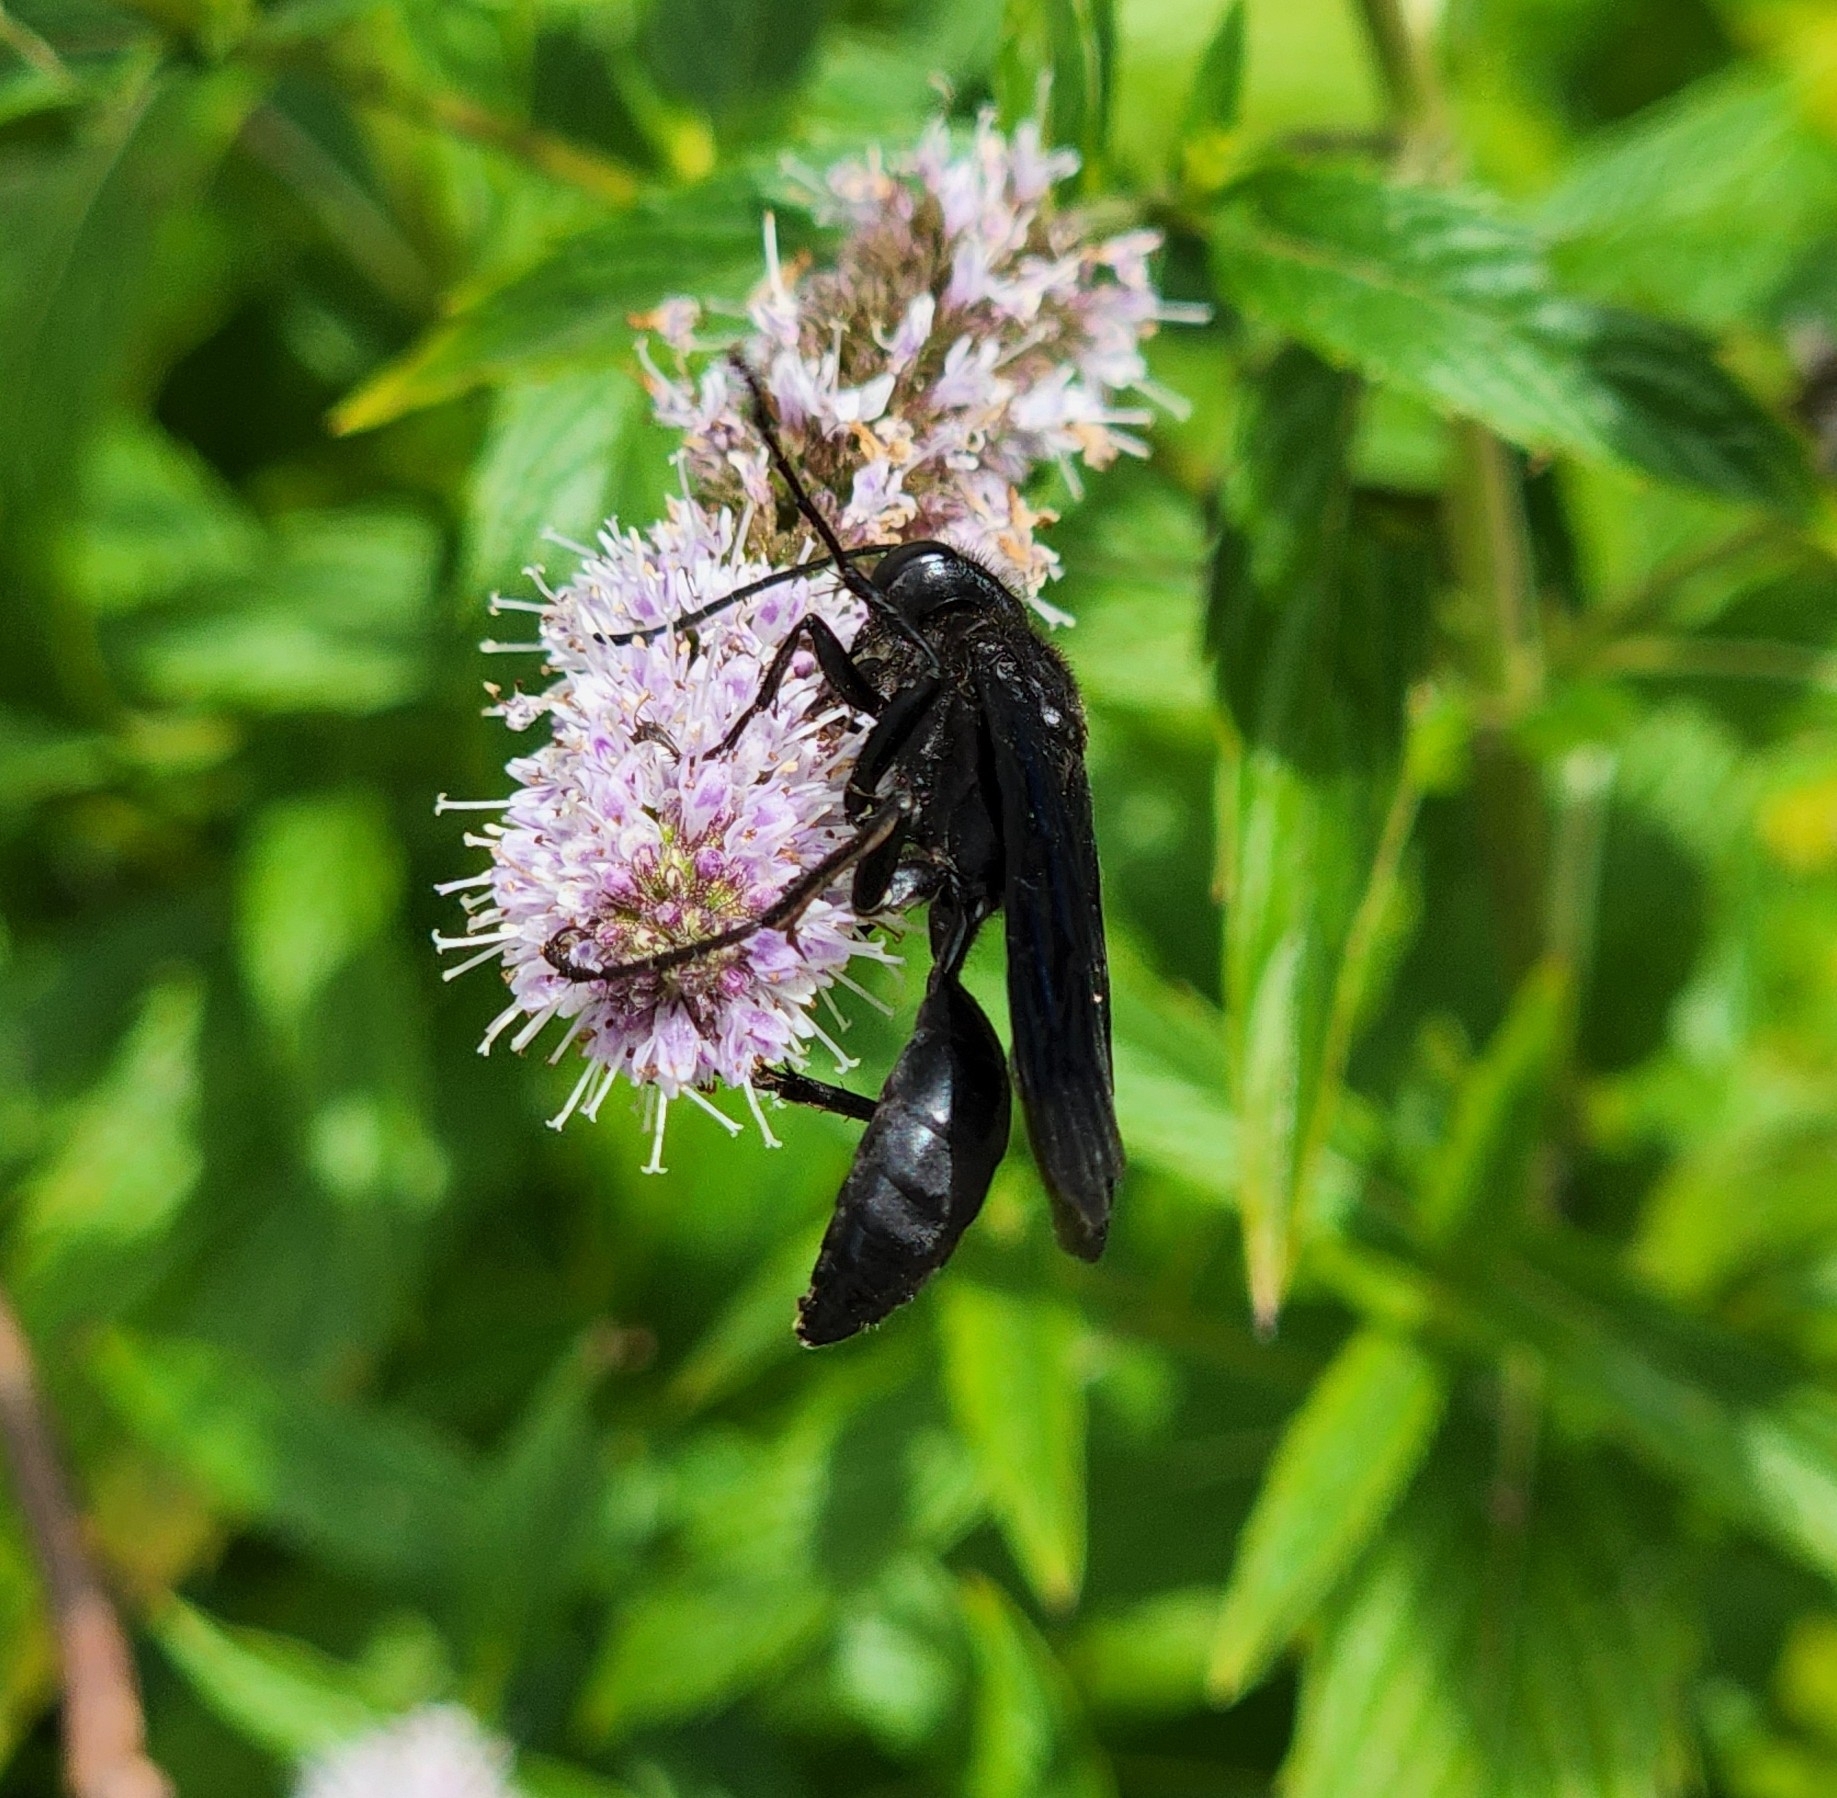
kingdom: Animalia
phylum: Arthropoda
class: Insecta
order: Hymenoptera
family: Sphecidae
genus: Sphex
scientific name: Sphex pensylvanicus
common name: Great black digger wasp
